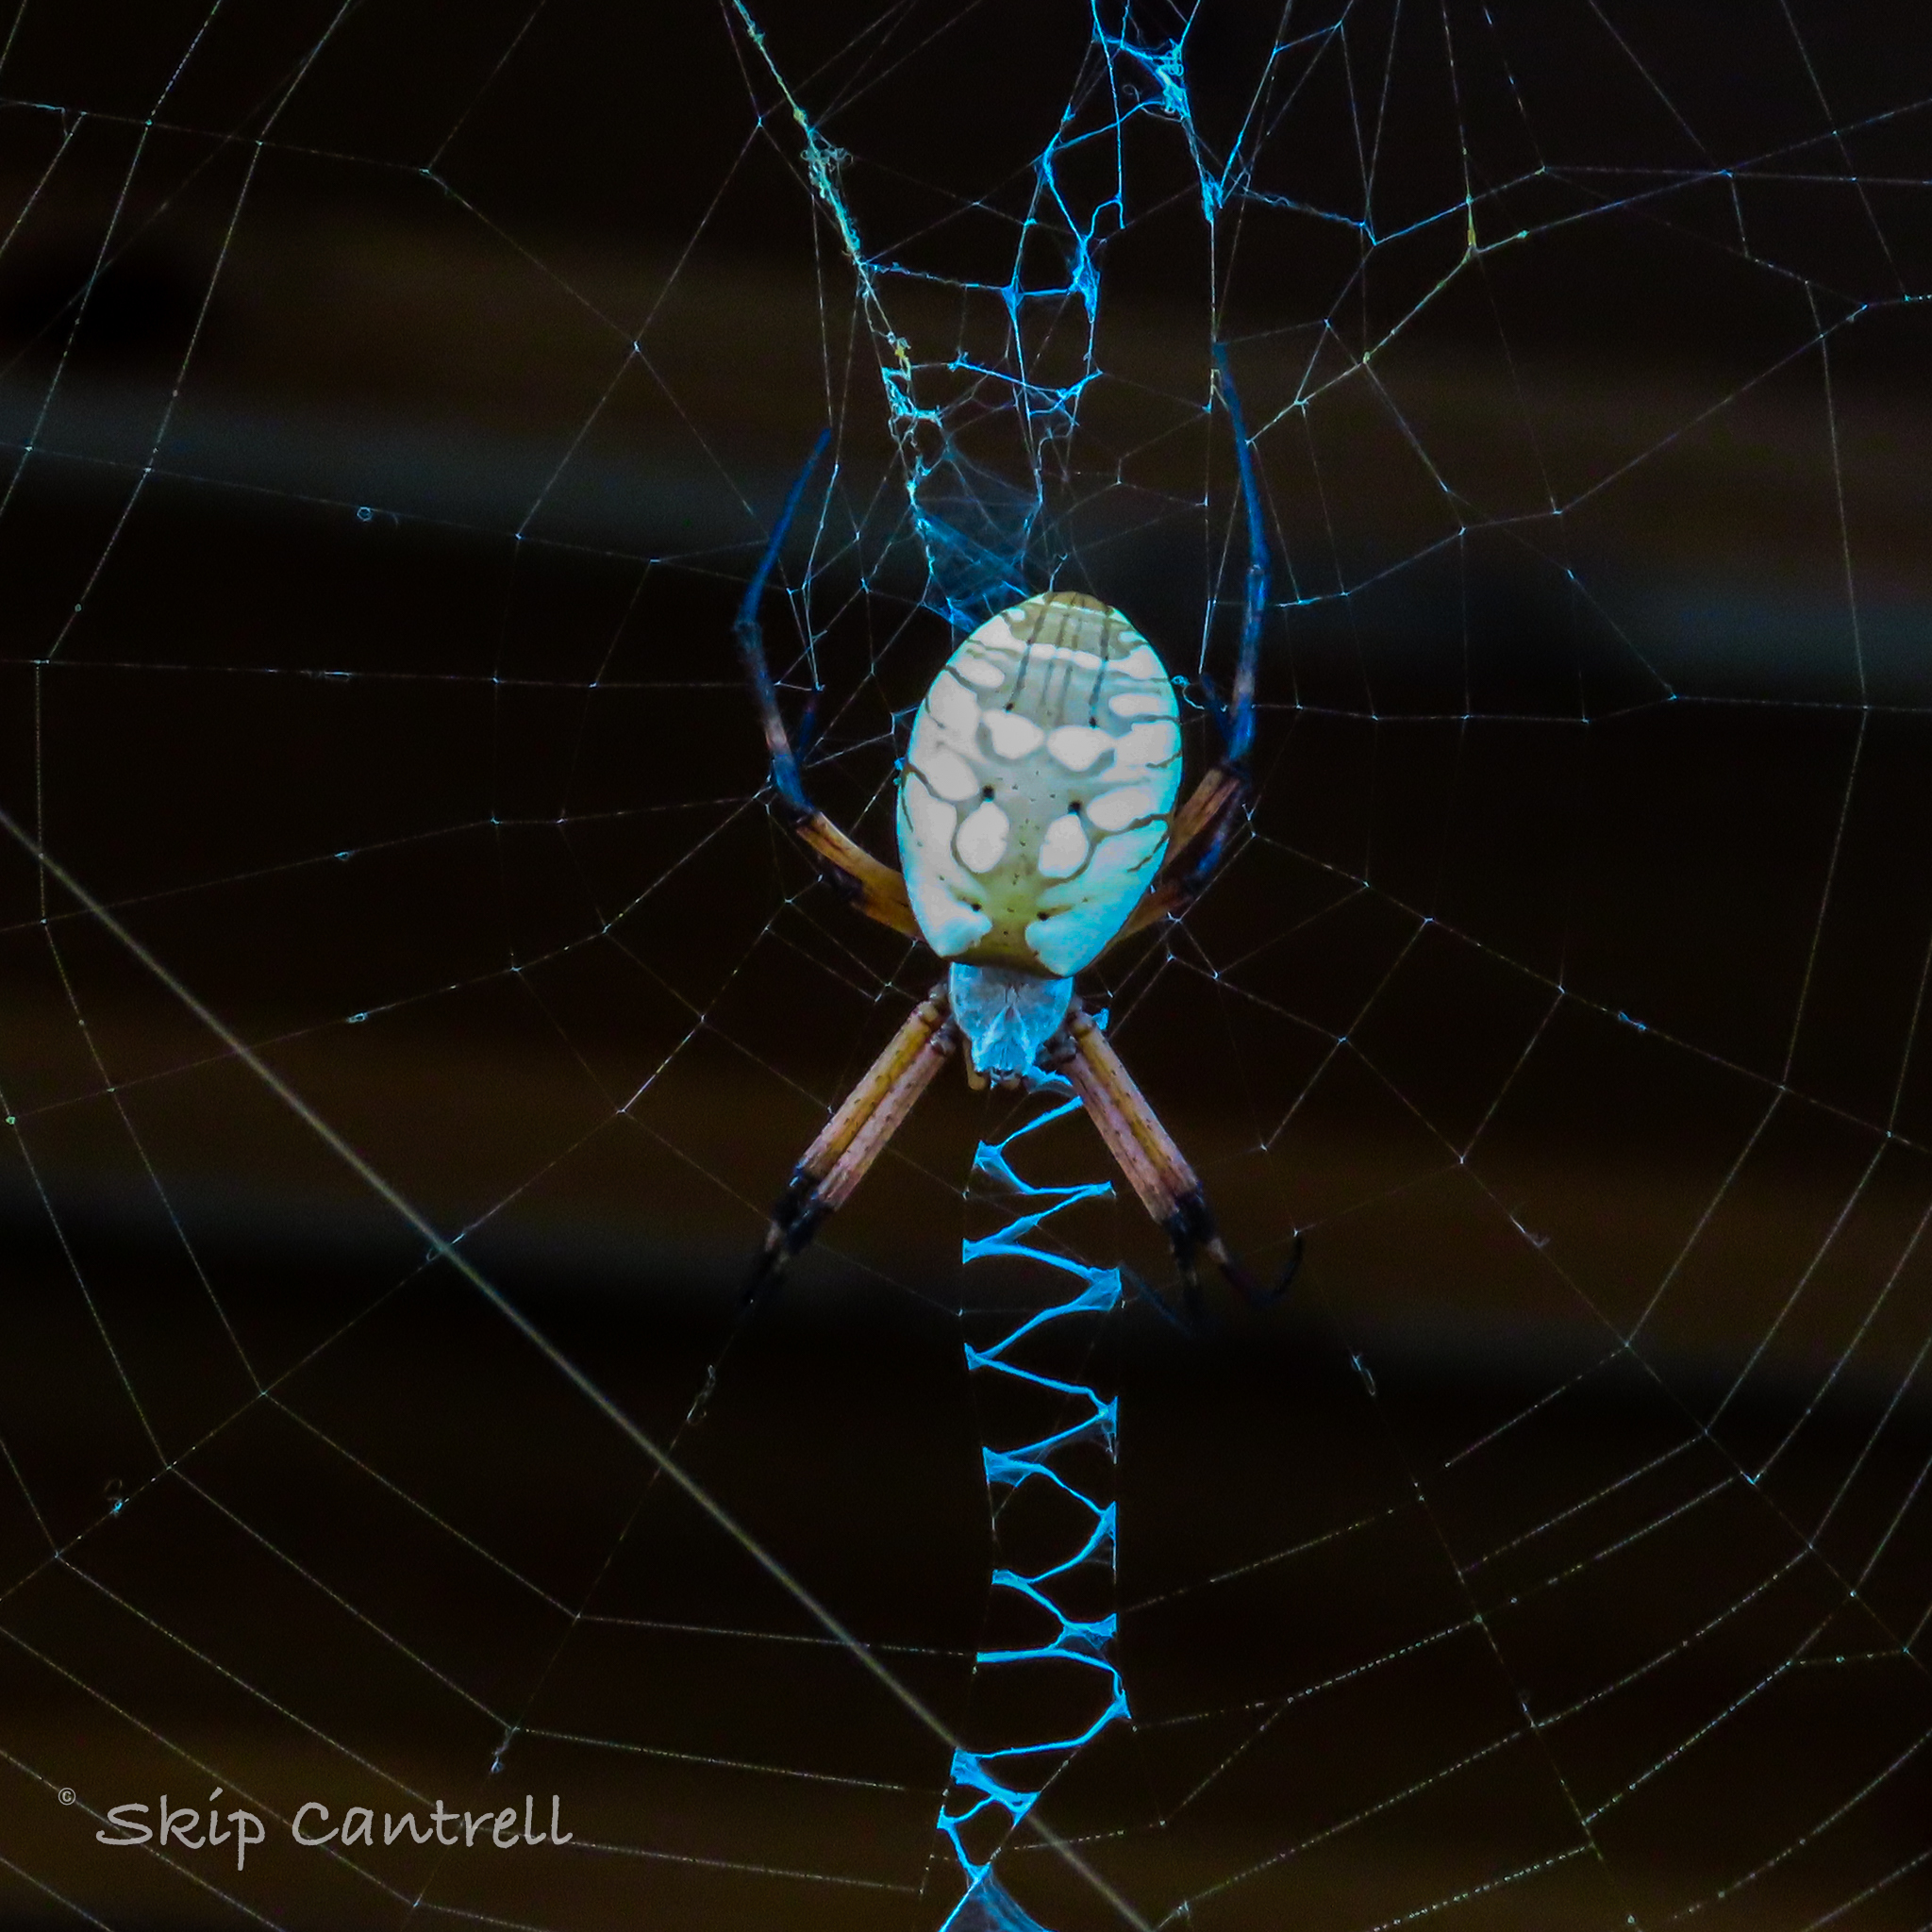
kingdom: Animalia
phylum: Arthropoda
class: Arachnida
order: Araneae
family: Araneidae
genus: Argiope
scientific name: Argiope aurantia
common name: Orb weavers
